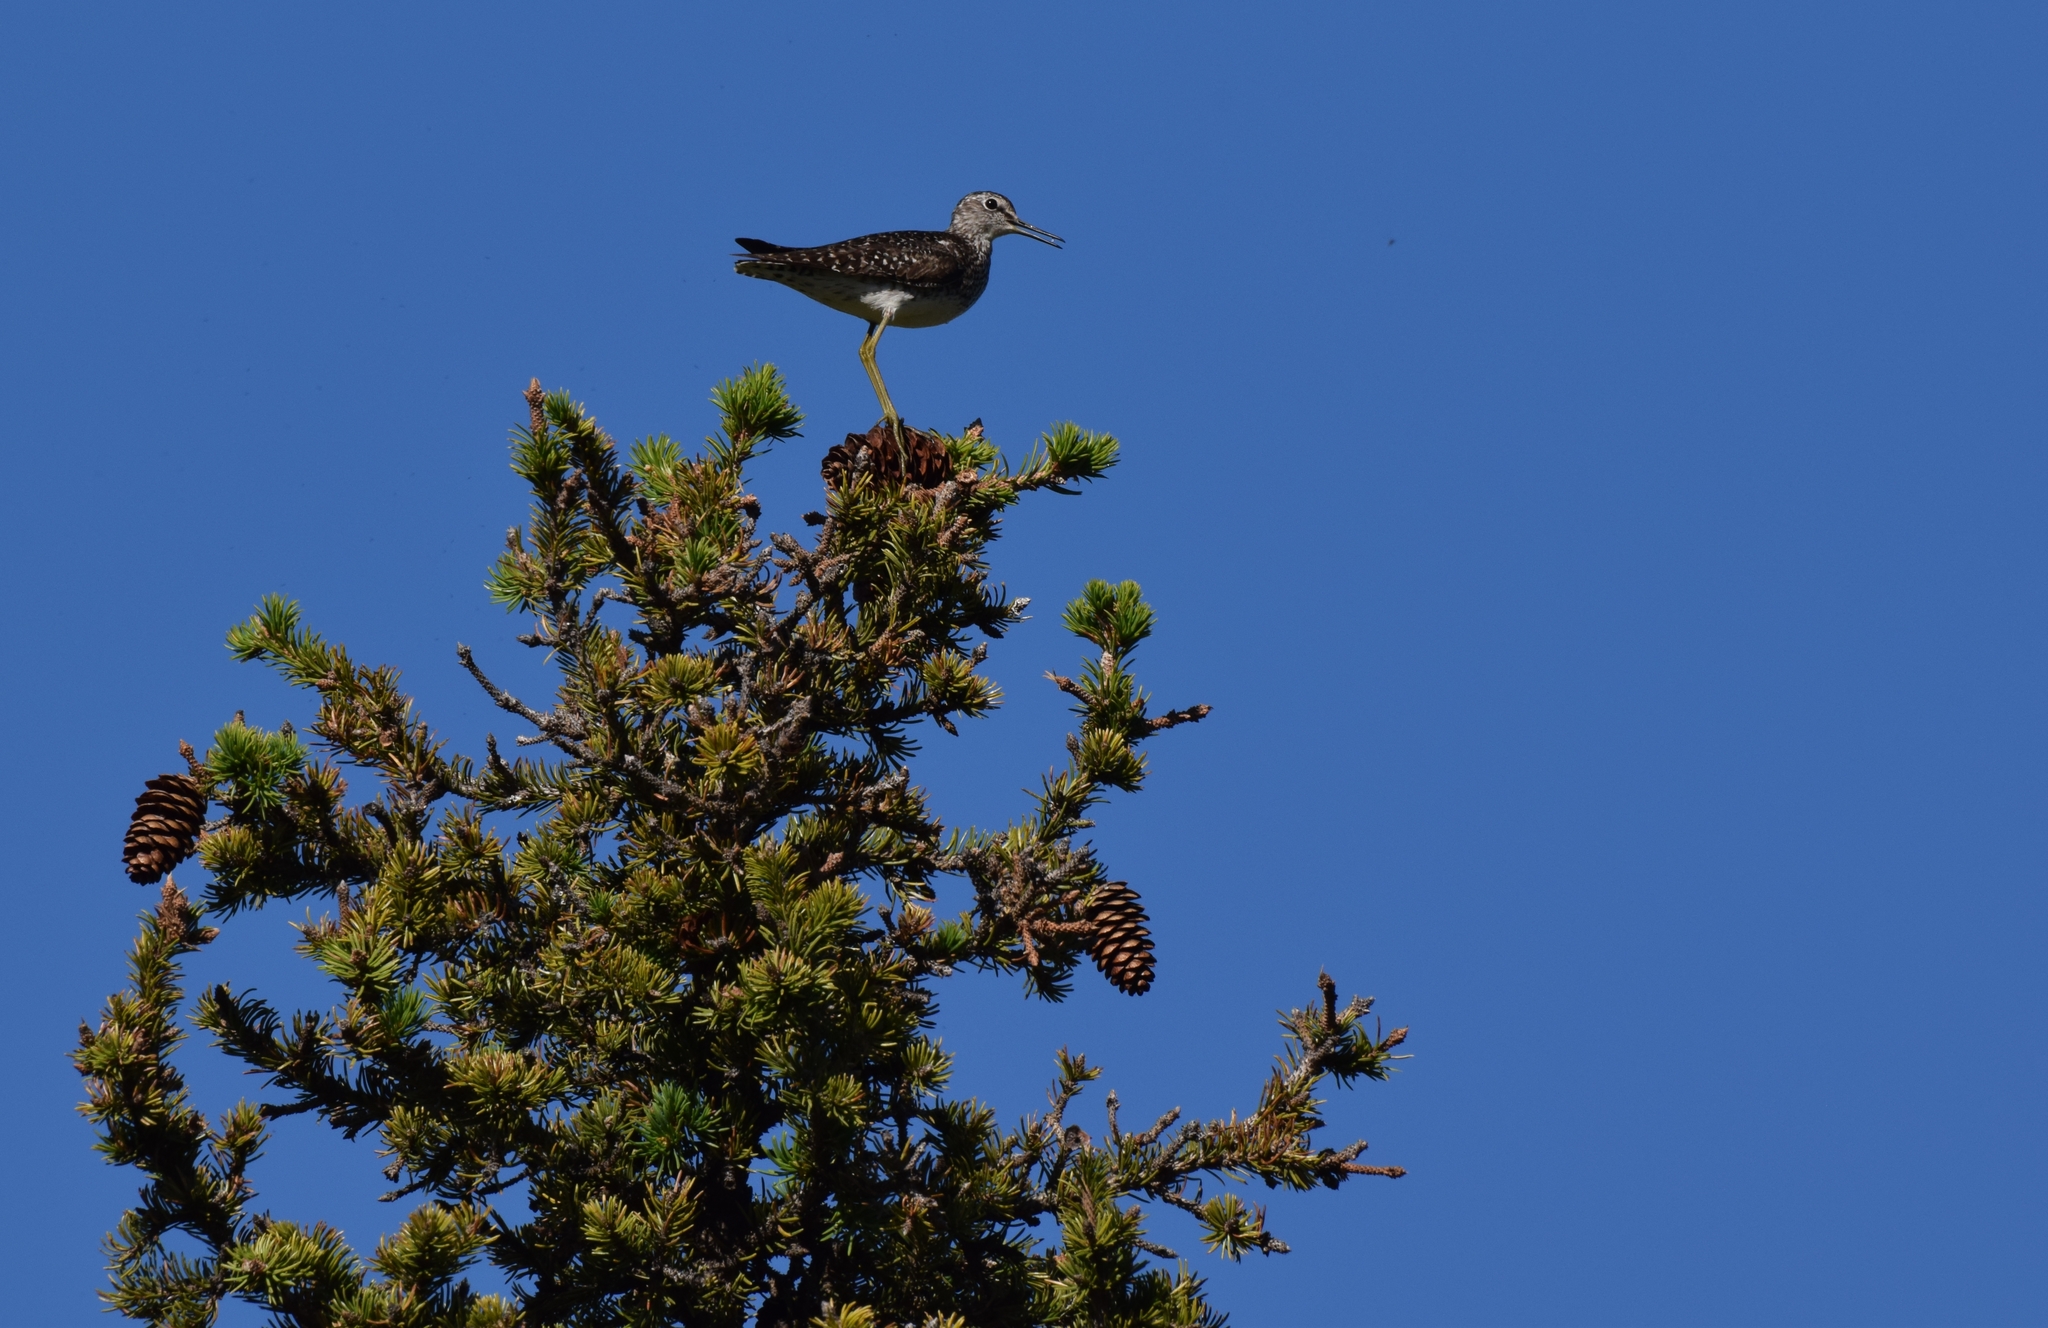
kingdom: Animalia
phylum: Chordata
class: Aves
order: Charadriiformes
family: Scolopacidae
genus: Tringa
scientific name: Tringa glareola
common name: Wood sandpiper
